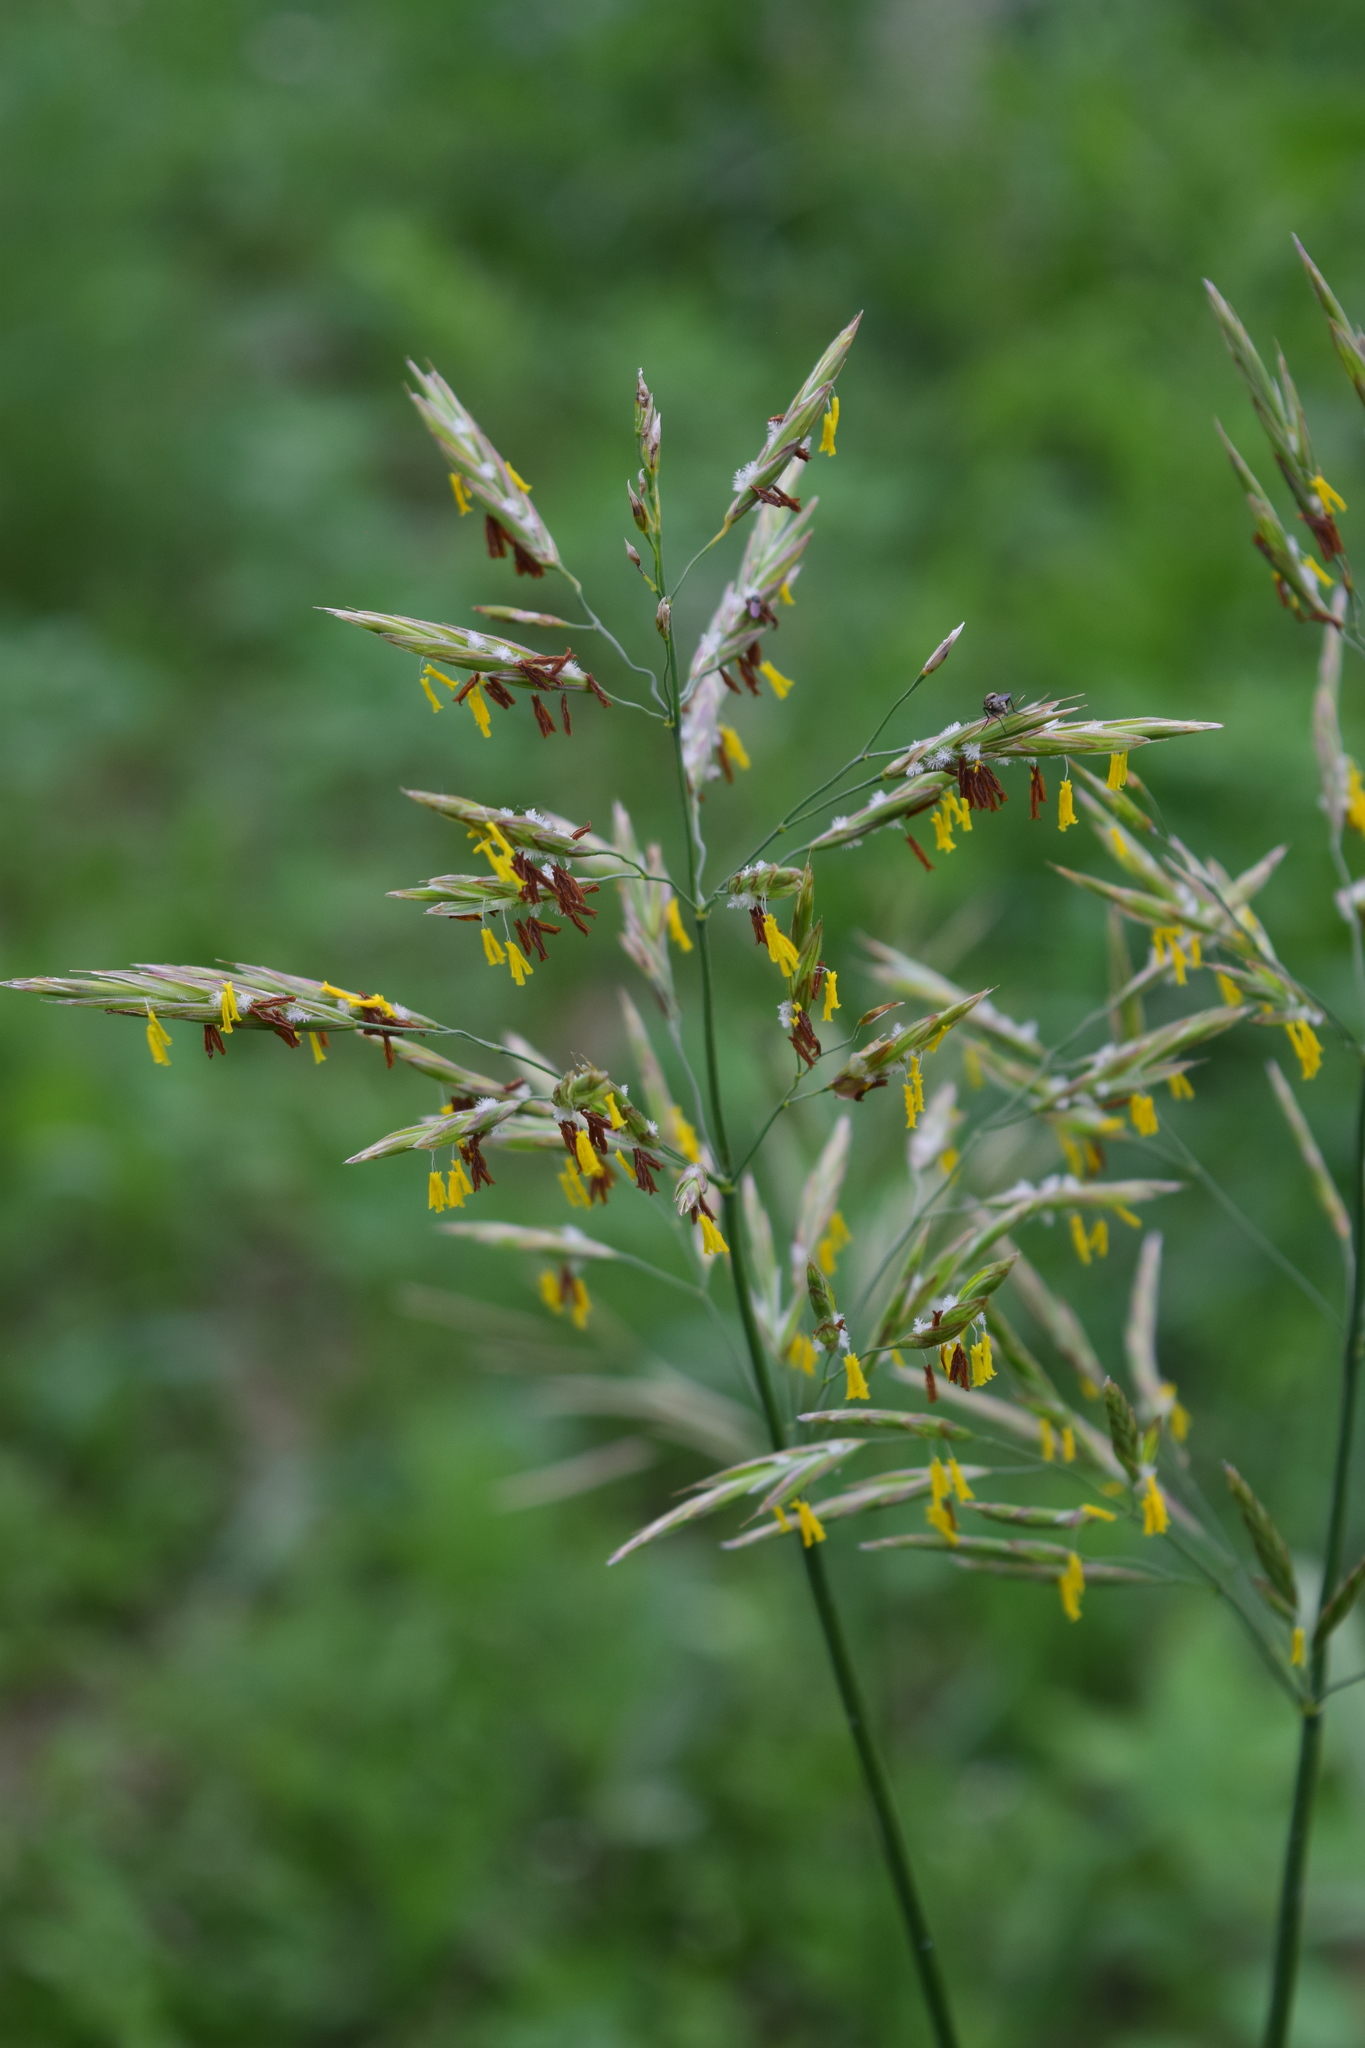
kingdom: Plantae
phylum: Tracheophyta
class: Liliopsida
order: Poales
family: Poaceae
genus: Bromus
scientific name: Bromus inermis
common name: Smooth brome
